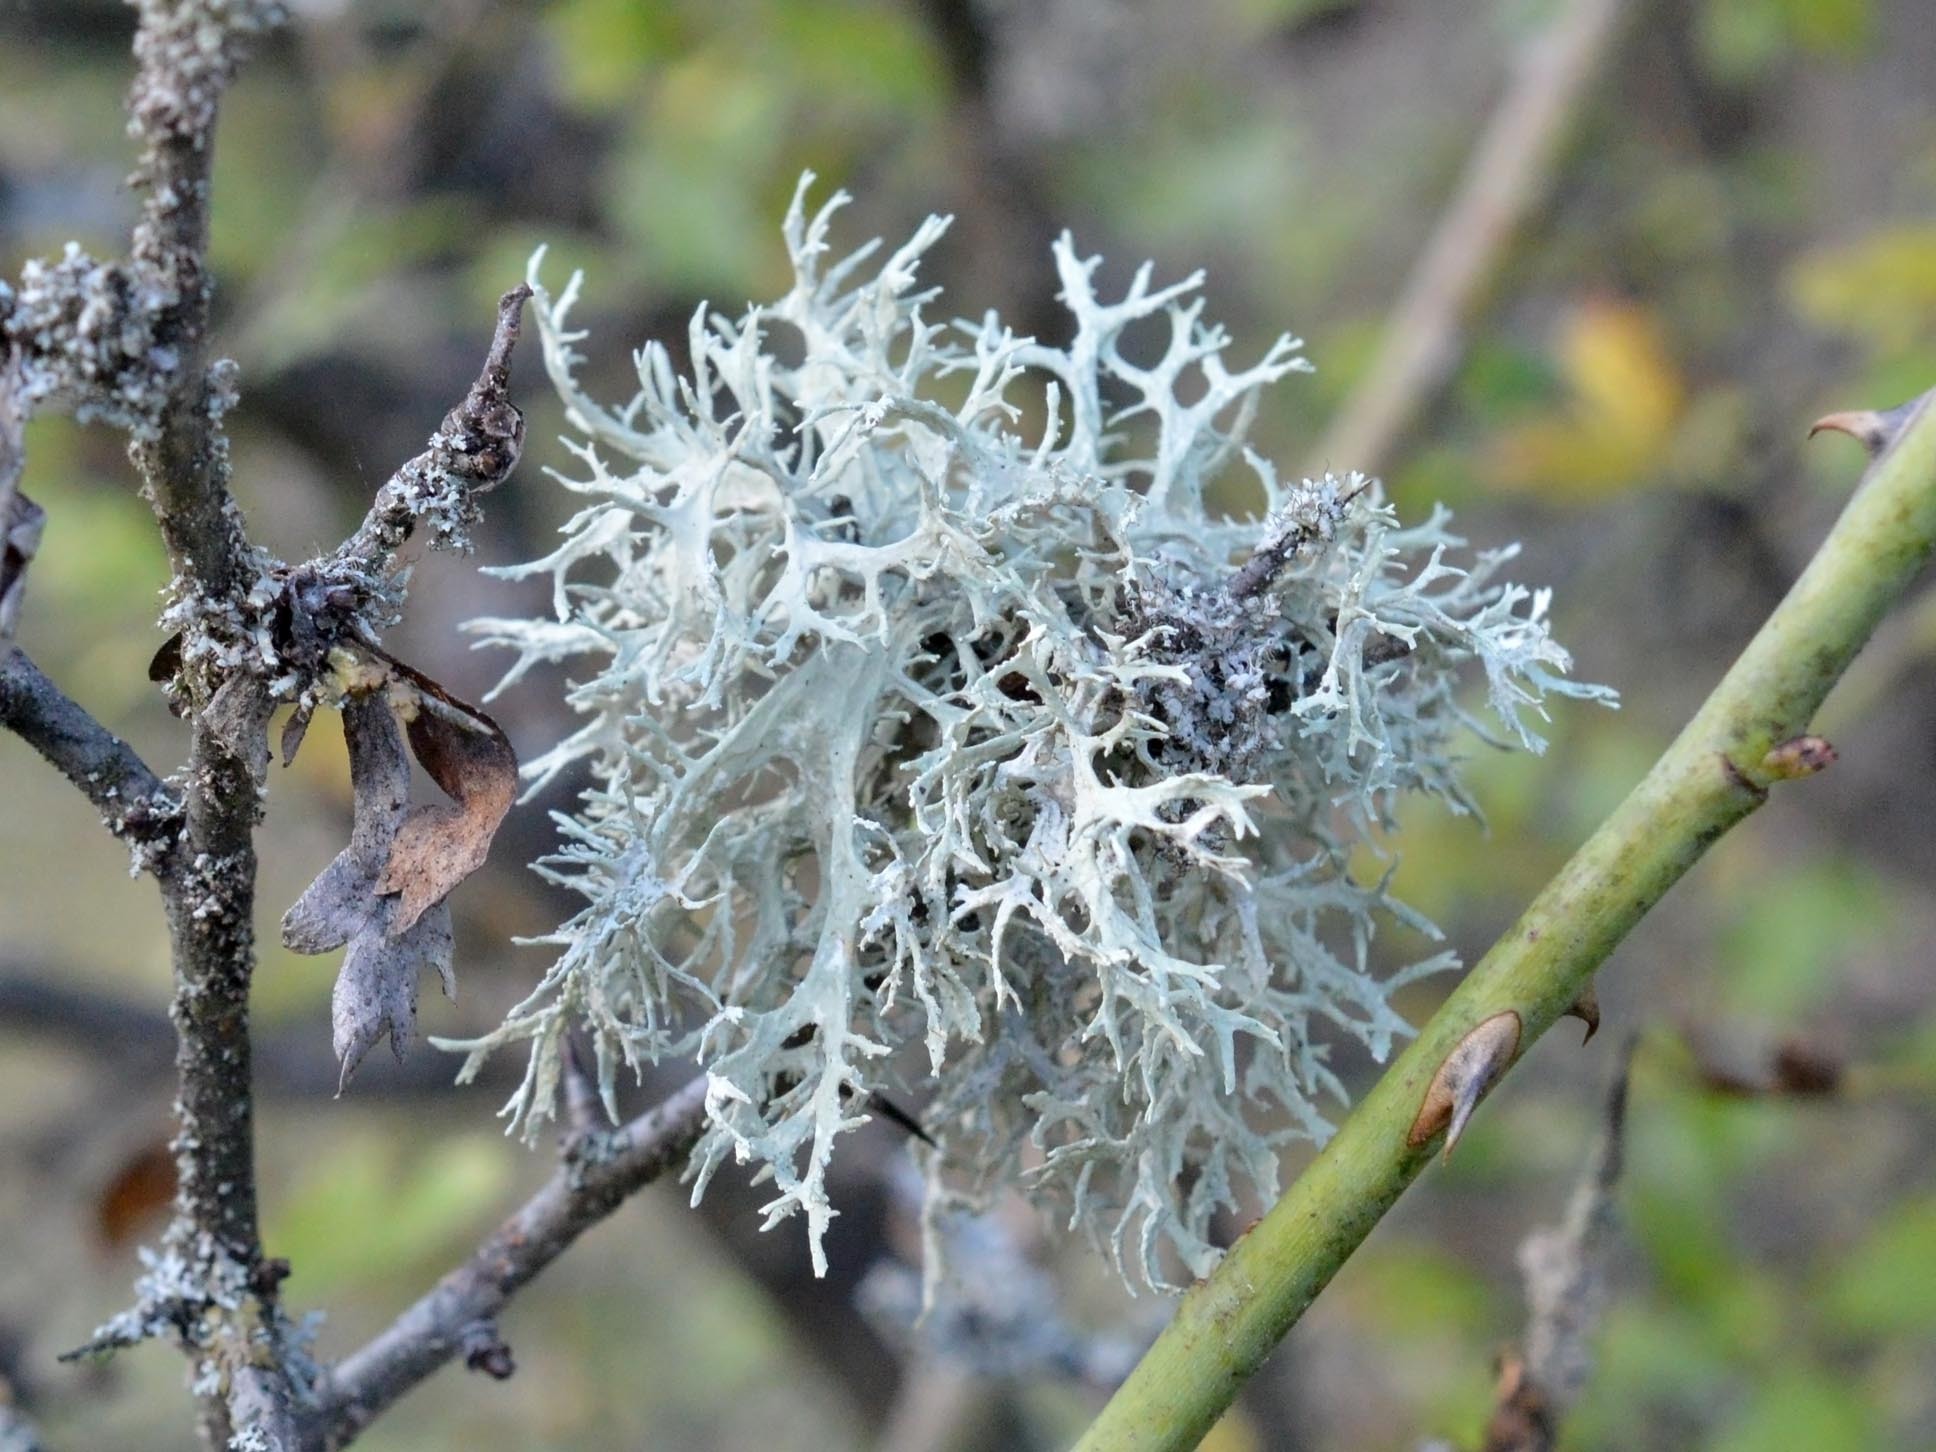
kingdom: Fungi
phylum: Ascomycota
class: Lecanoromycetes
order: Lecanorales
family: Parmeliaceae
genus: Evernia
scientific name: Evernia prunastri
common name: Oak moss
